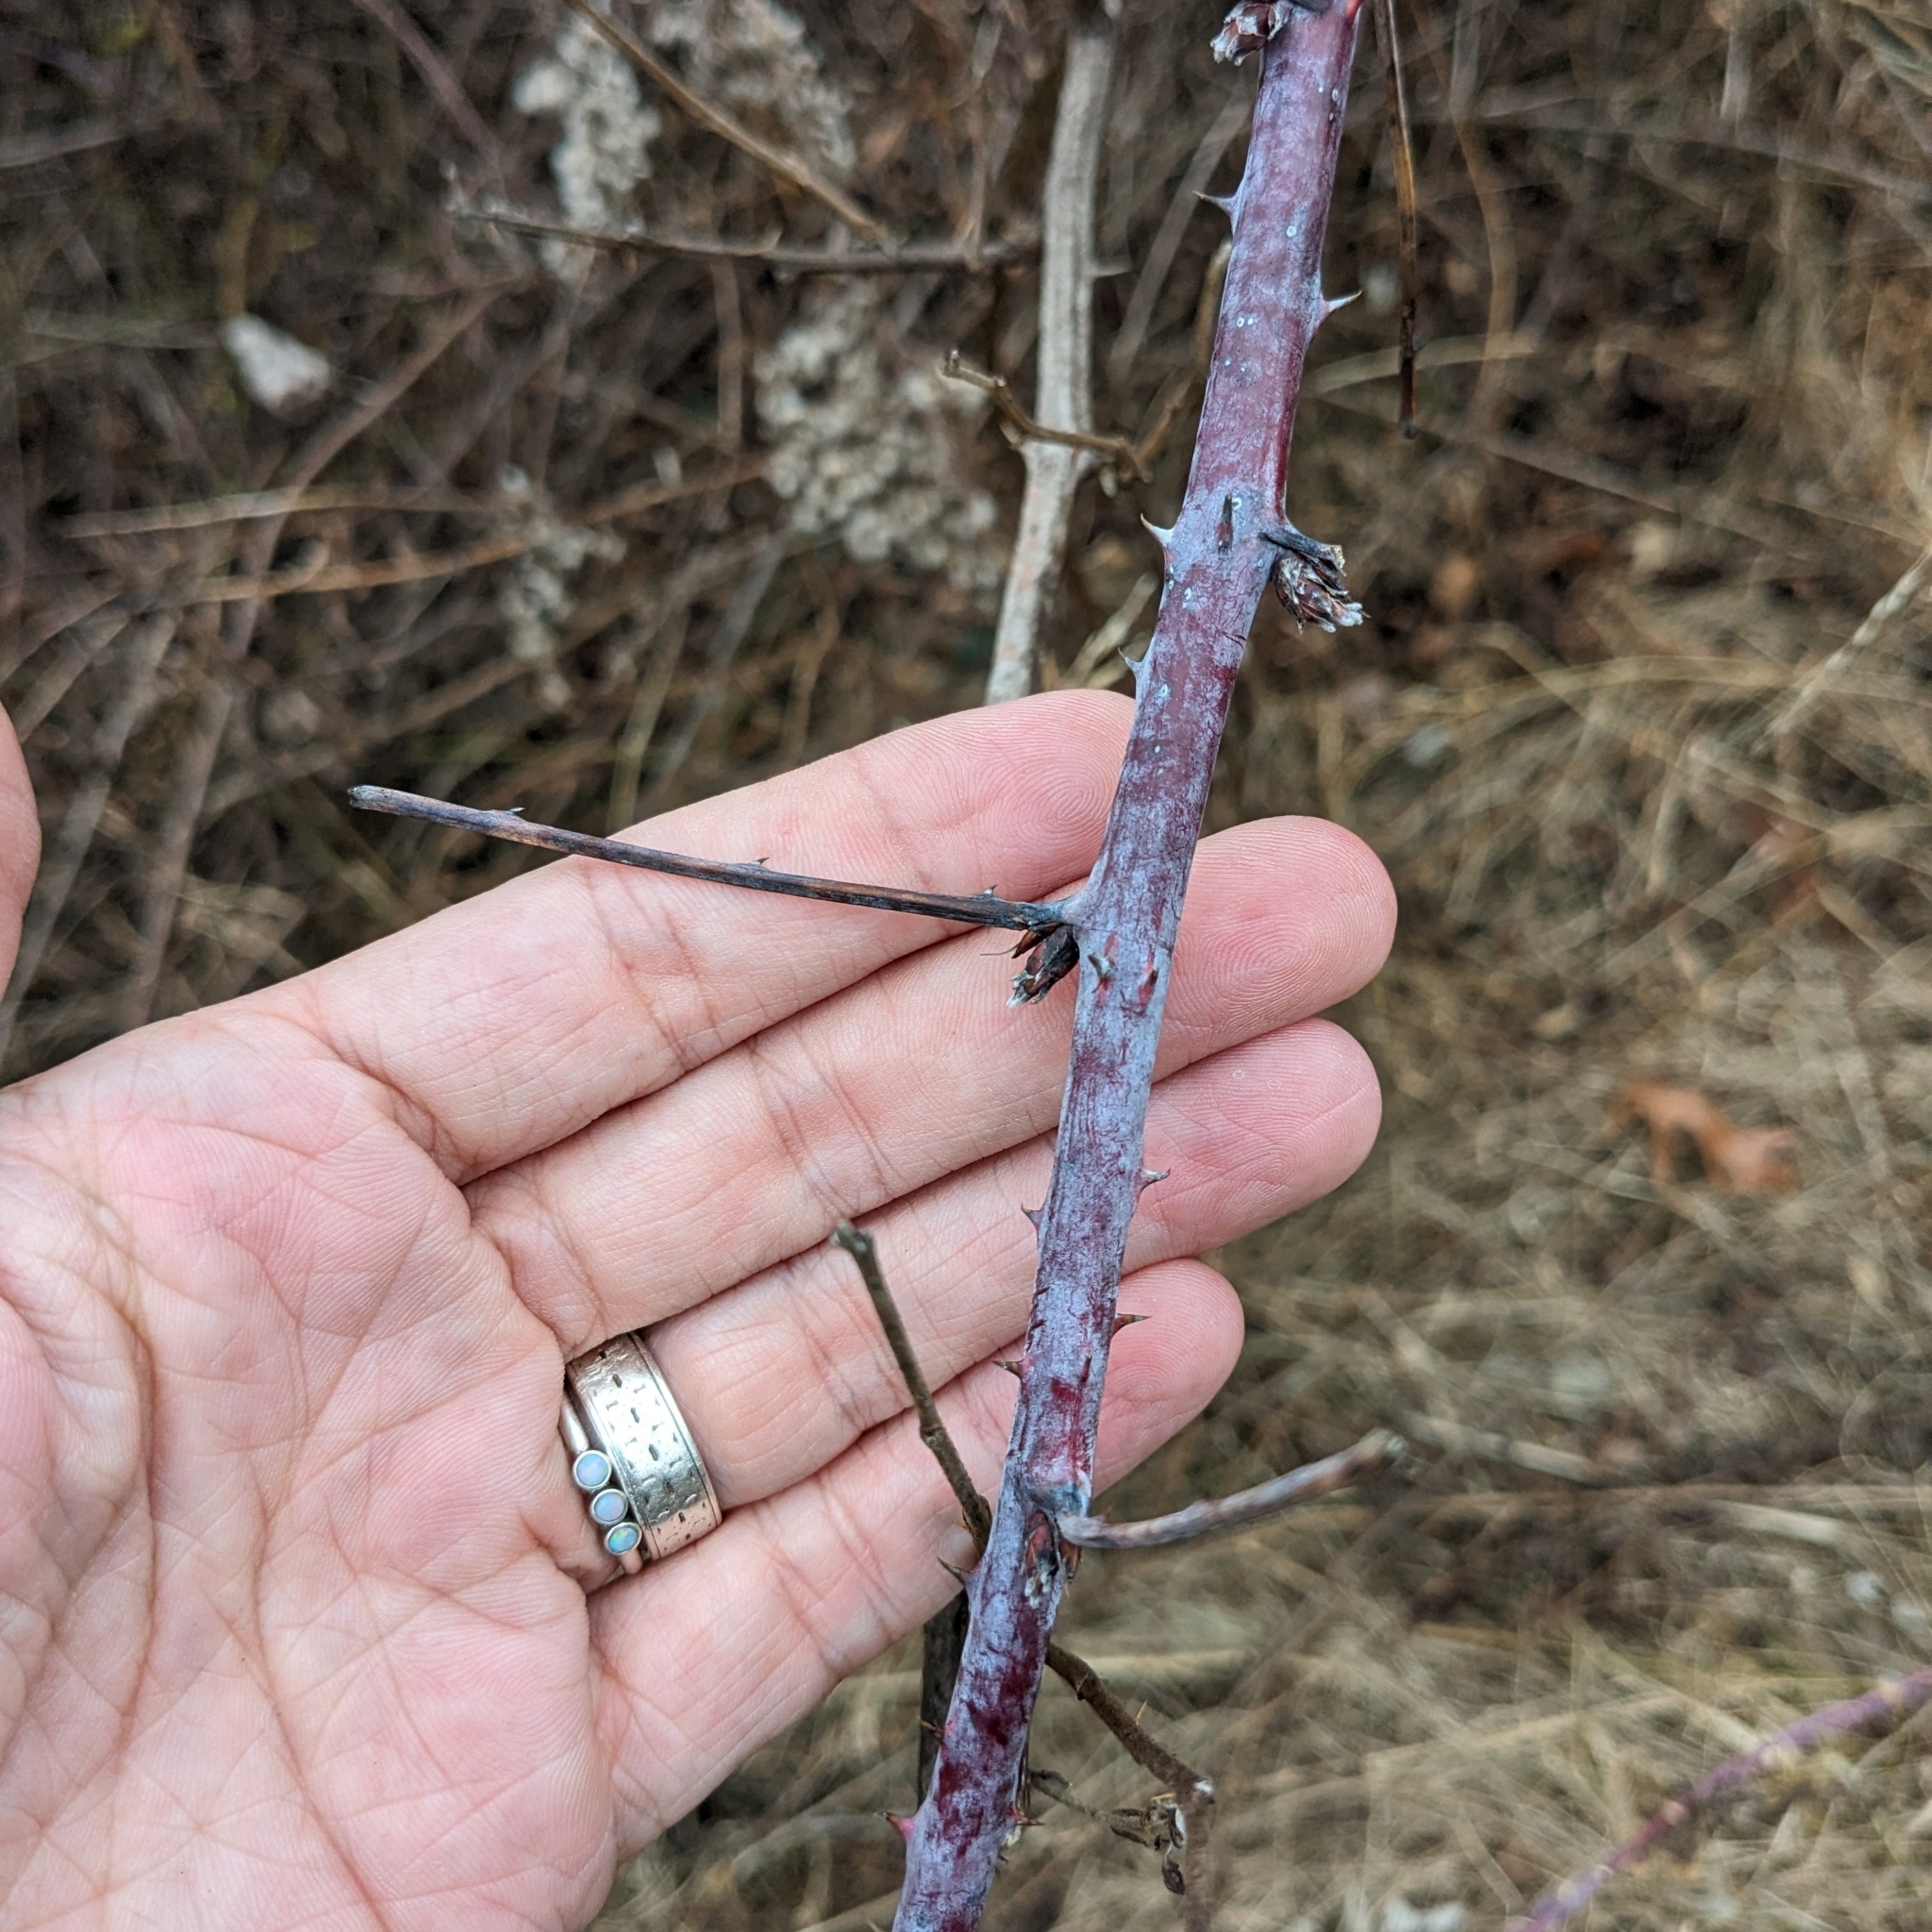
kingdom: Plantae
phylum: Tracheophyta
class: Magnoliopsida
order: Rosales
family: Rosaceae
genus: Rubus
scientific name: Rubus occidentalis
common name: Black raspberry
